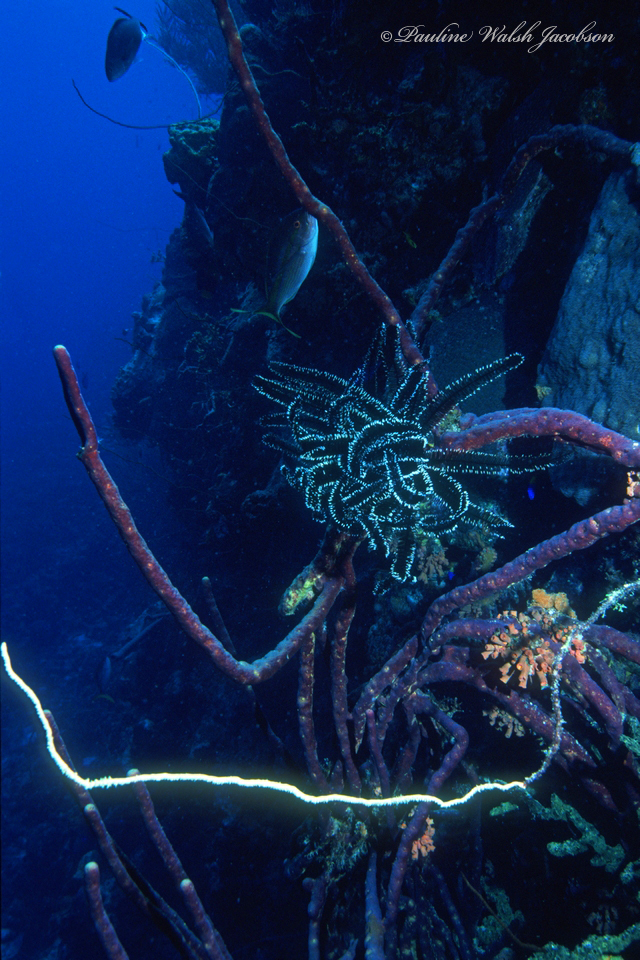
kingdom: Animalia
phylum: Echinodermata
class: Crinoidea
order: Comatulida
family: Comatulidae
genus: Nemaster
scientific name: Nemaster grandis
